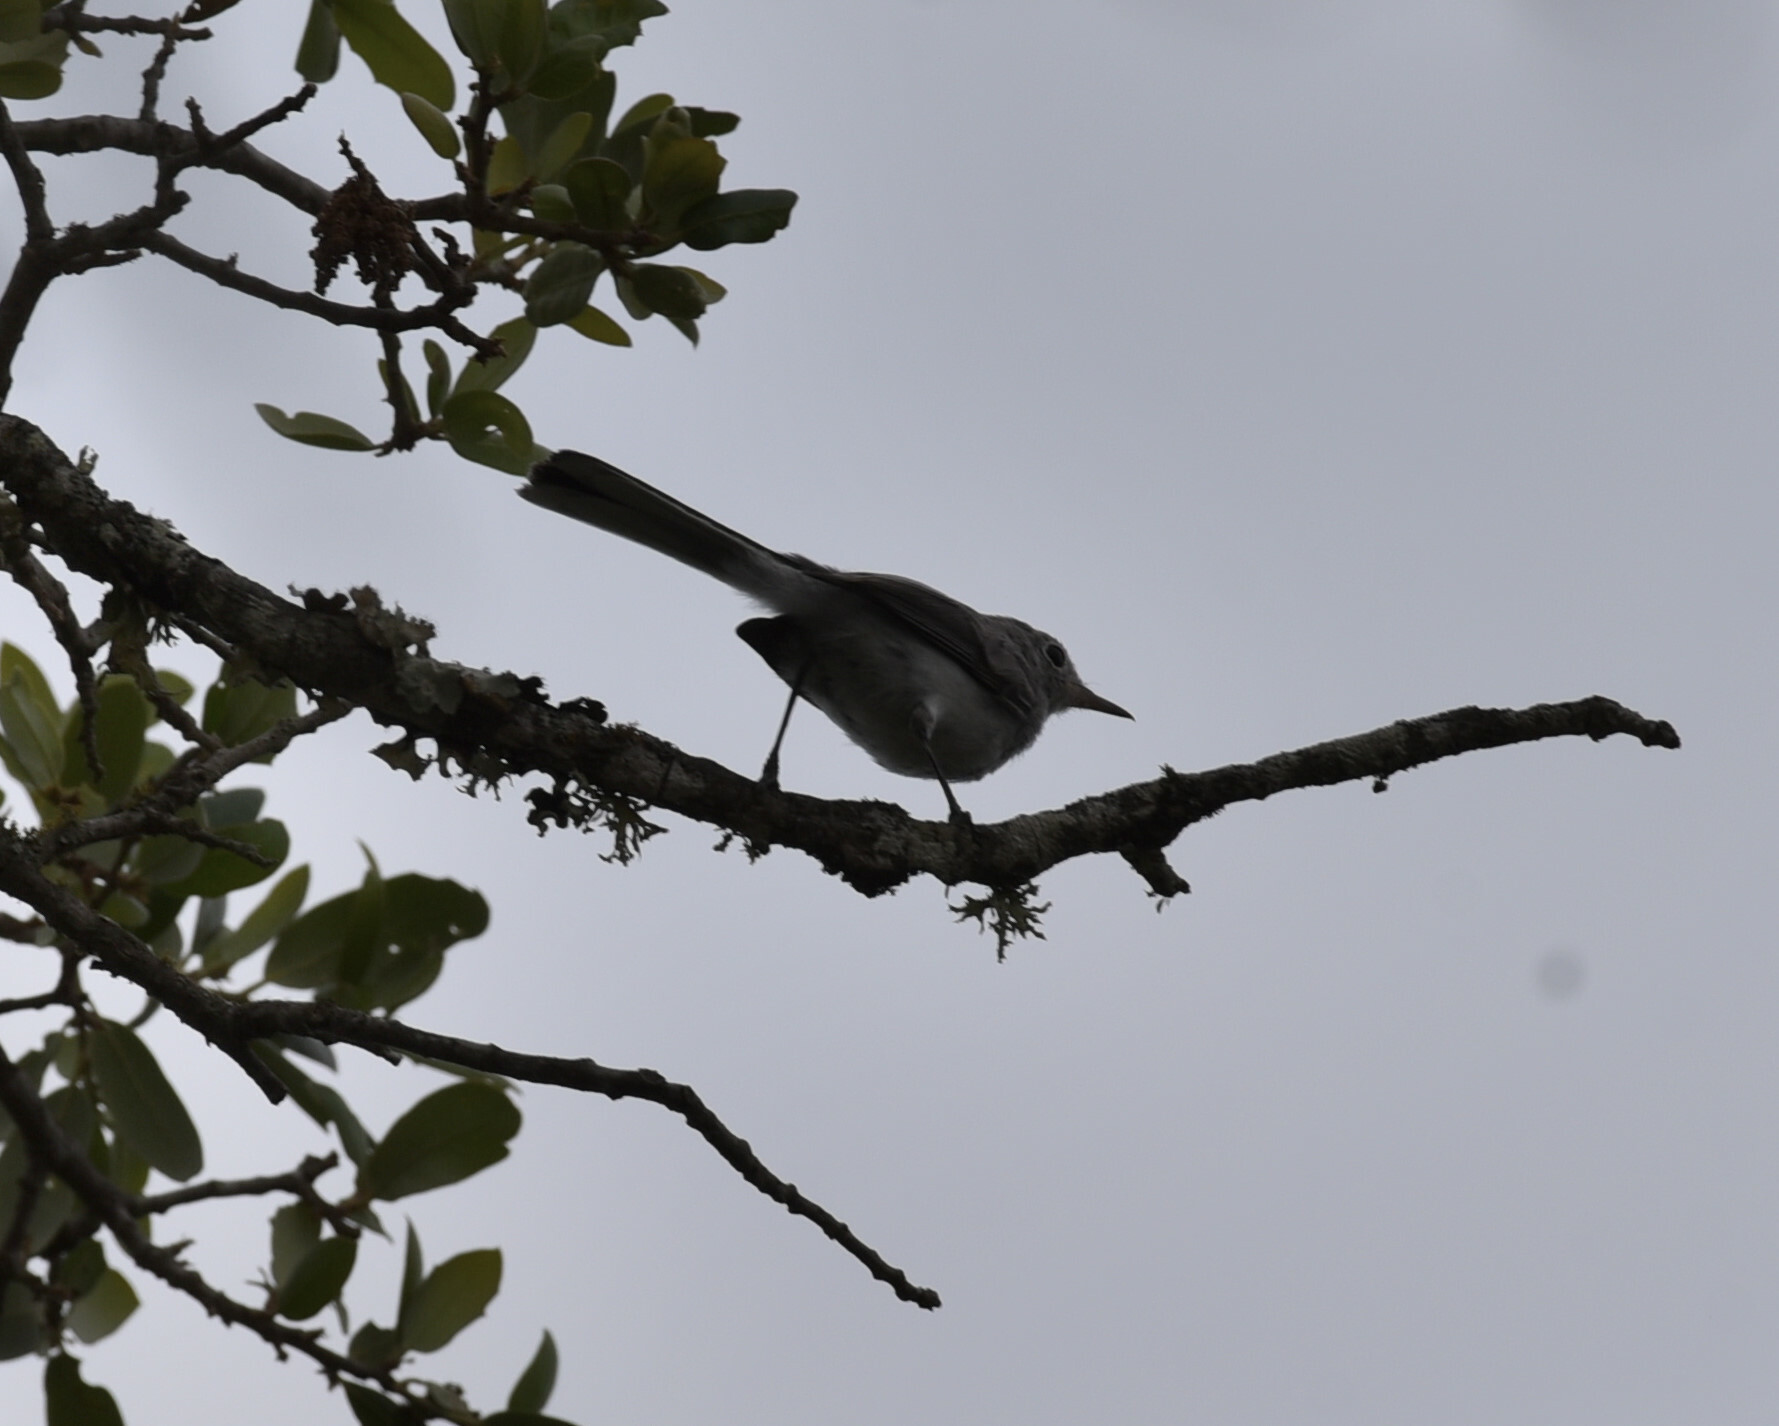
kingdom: Animalia
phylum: Chordata
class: Aves
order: Passeriformes
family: Polioptilidae
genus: Polioptila
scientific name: Polioptila caerulea
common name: Blue-gray gnatcatcher
